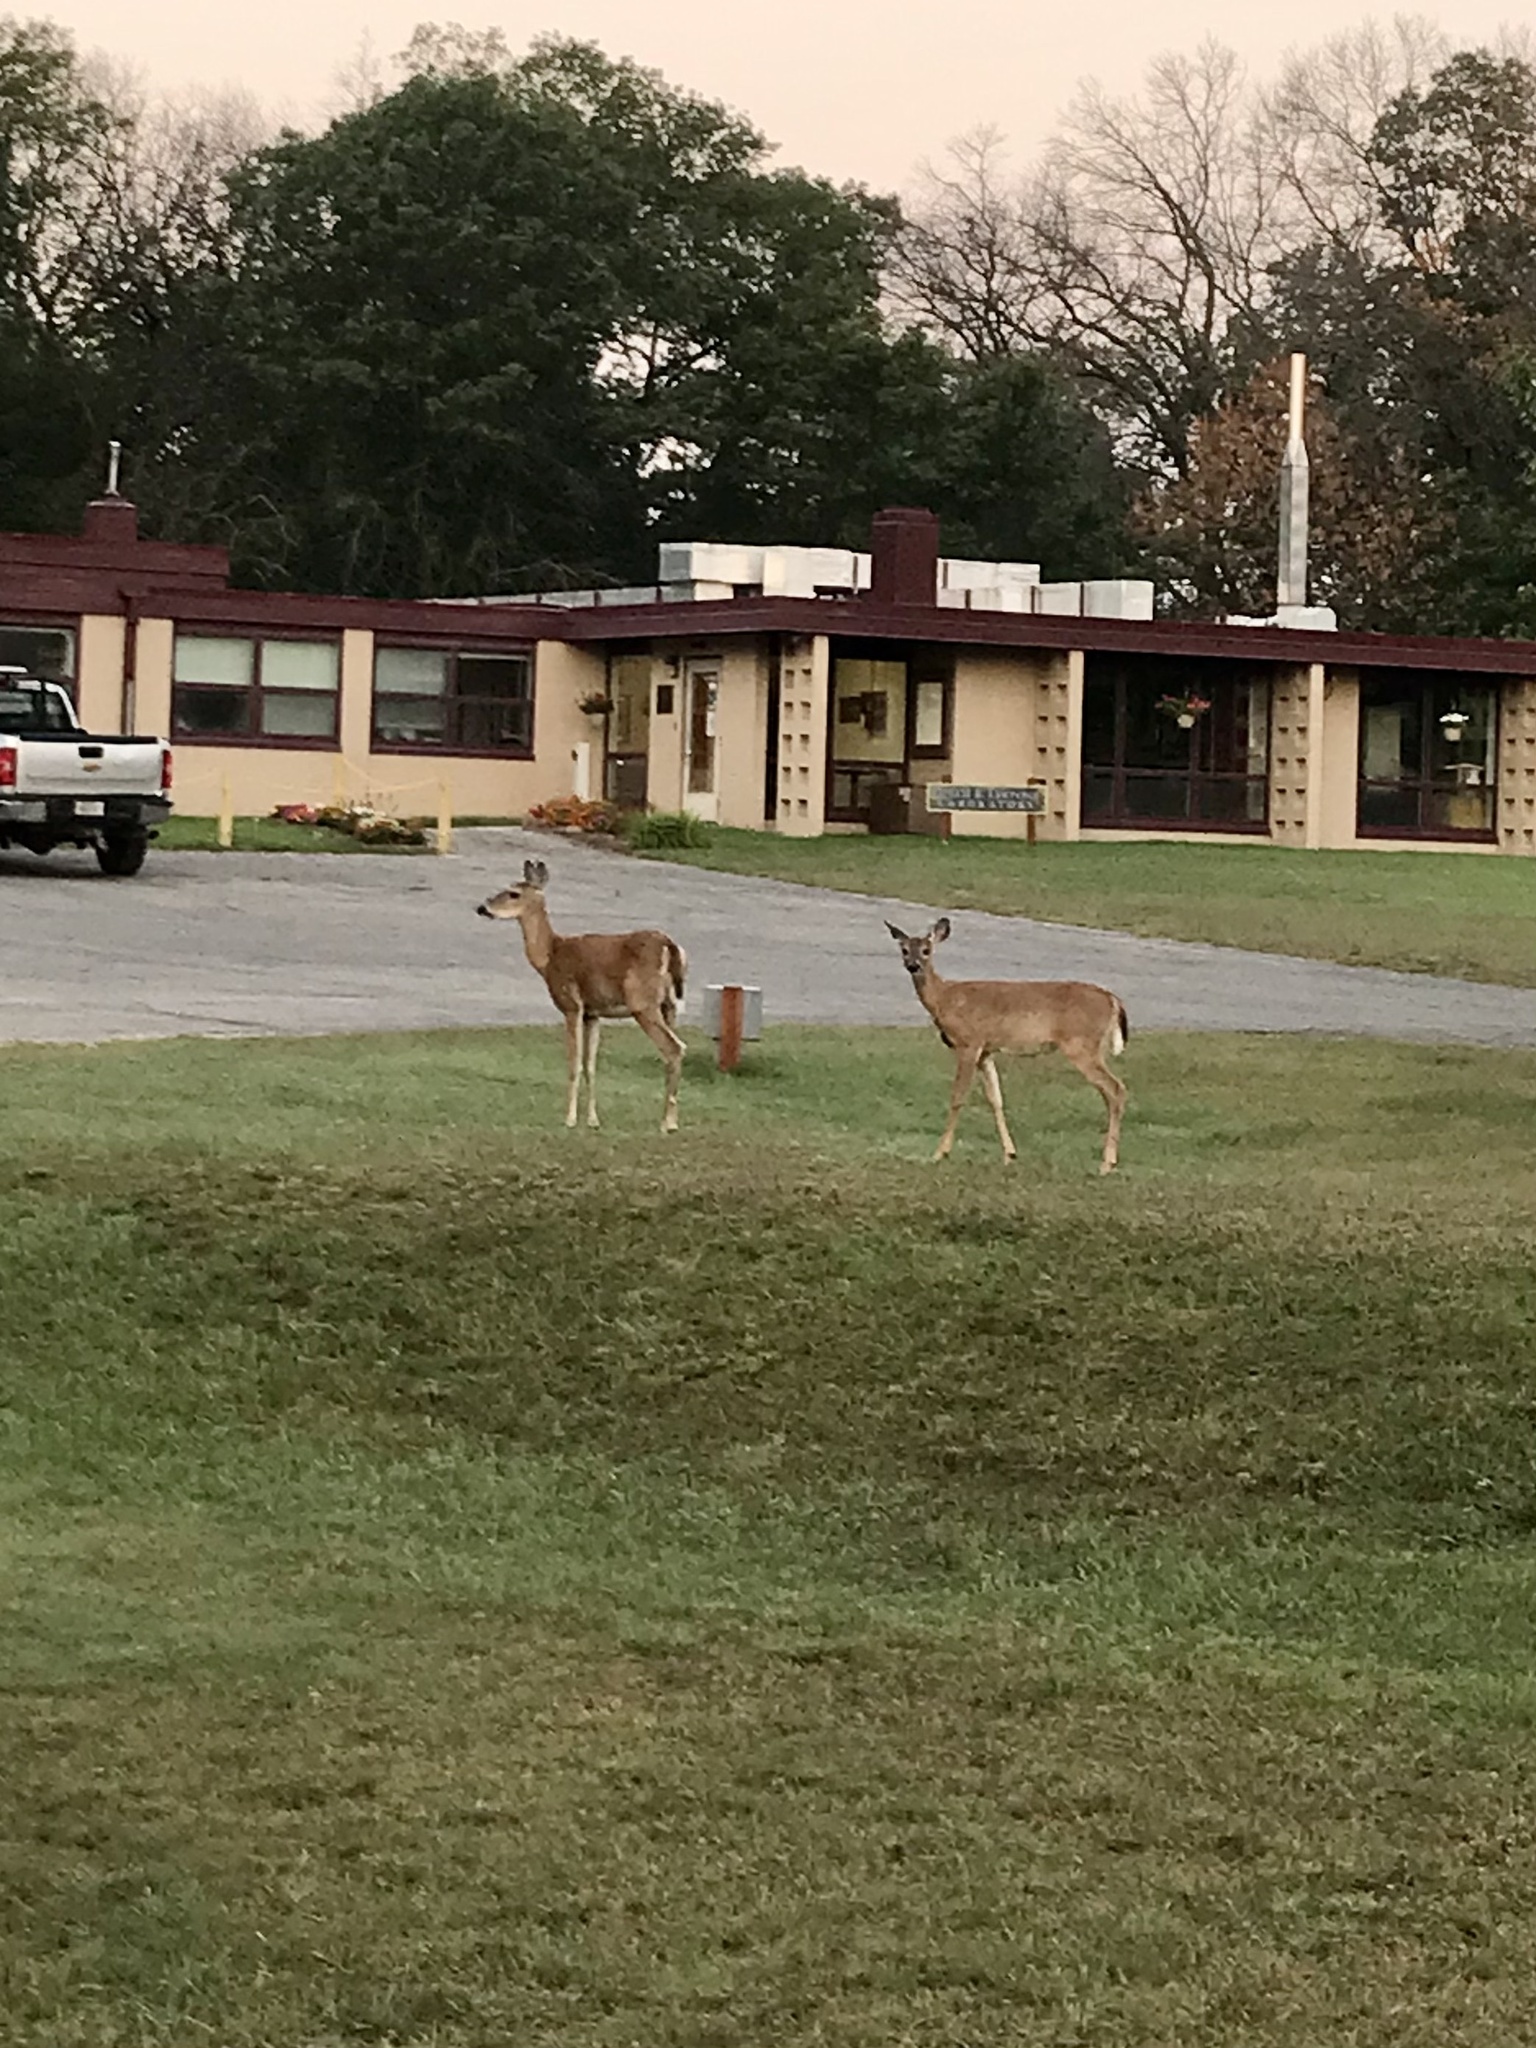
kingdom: Animalia
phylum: Chordata
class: Mammalia
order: Artiodactyla
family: Cervidae
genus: Odocoileus
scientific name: Odocoileus virginianus
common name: White-tailed deer
